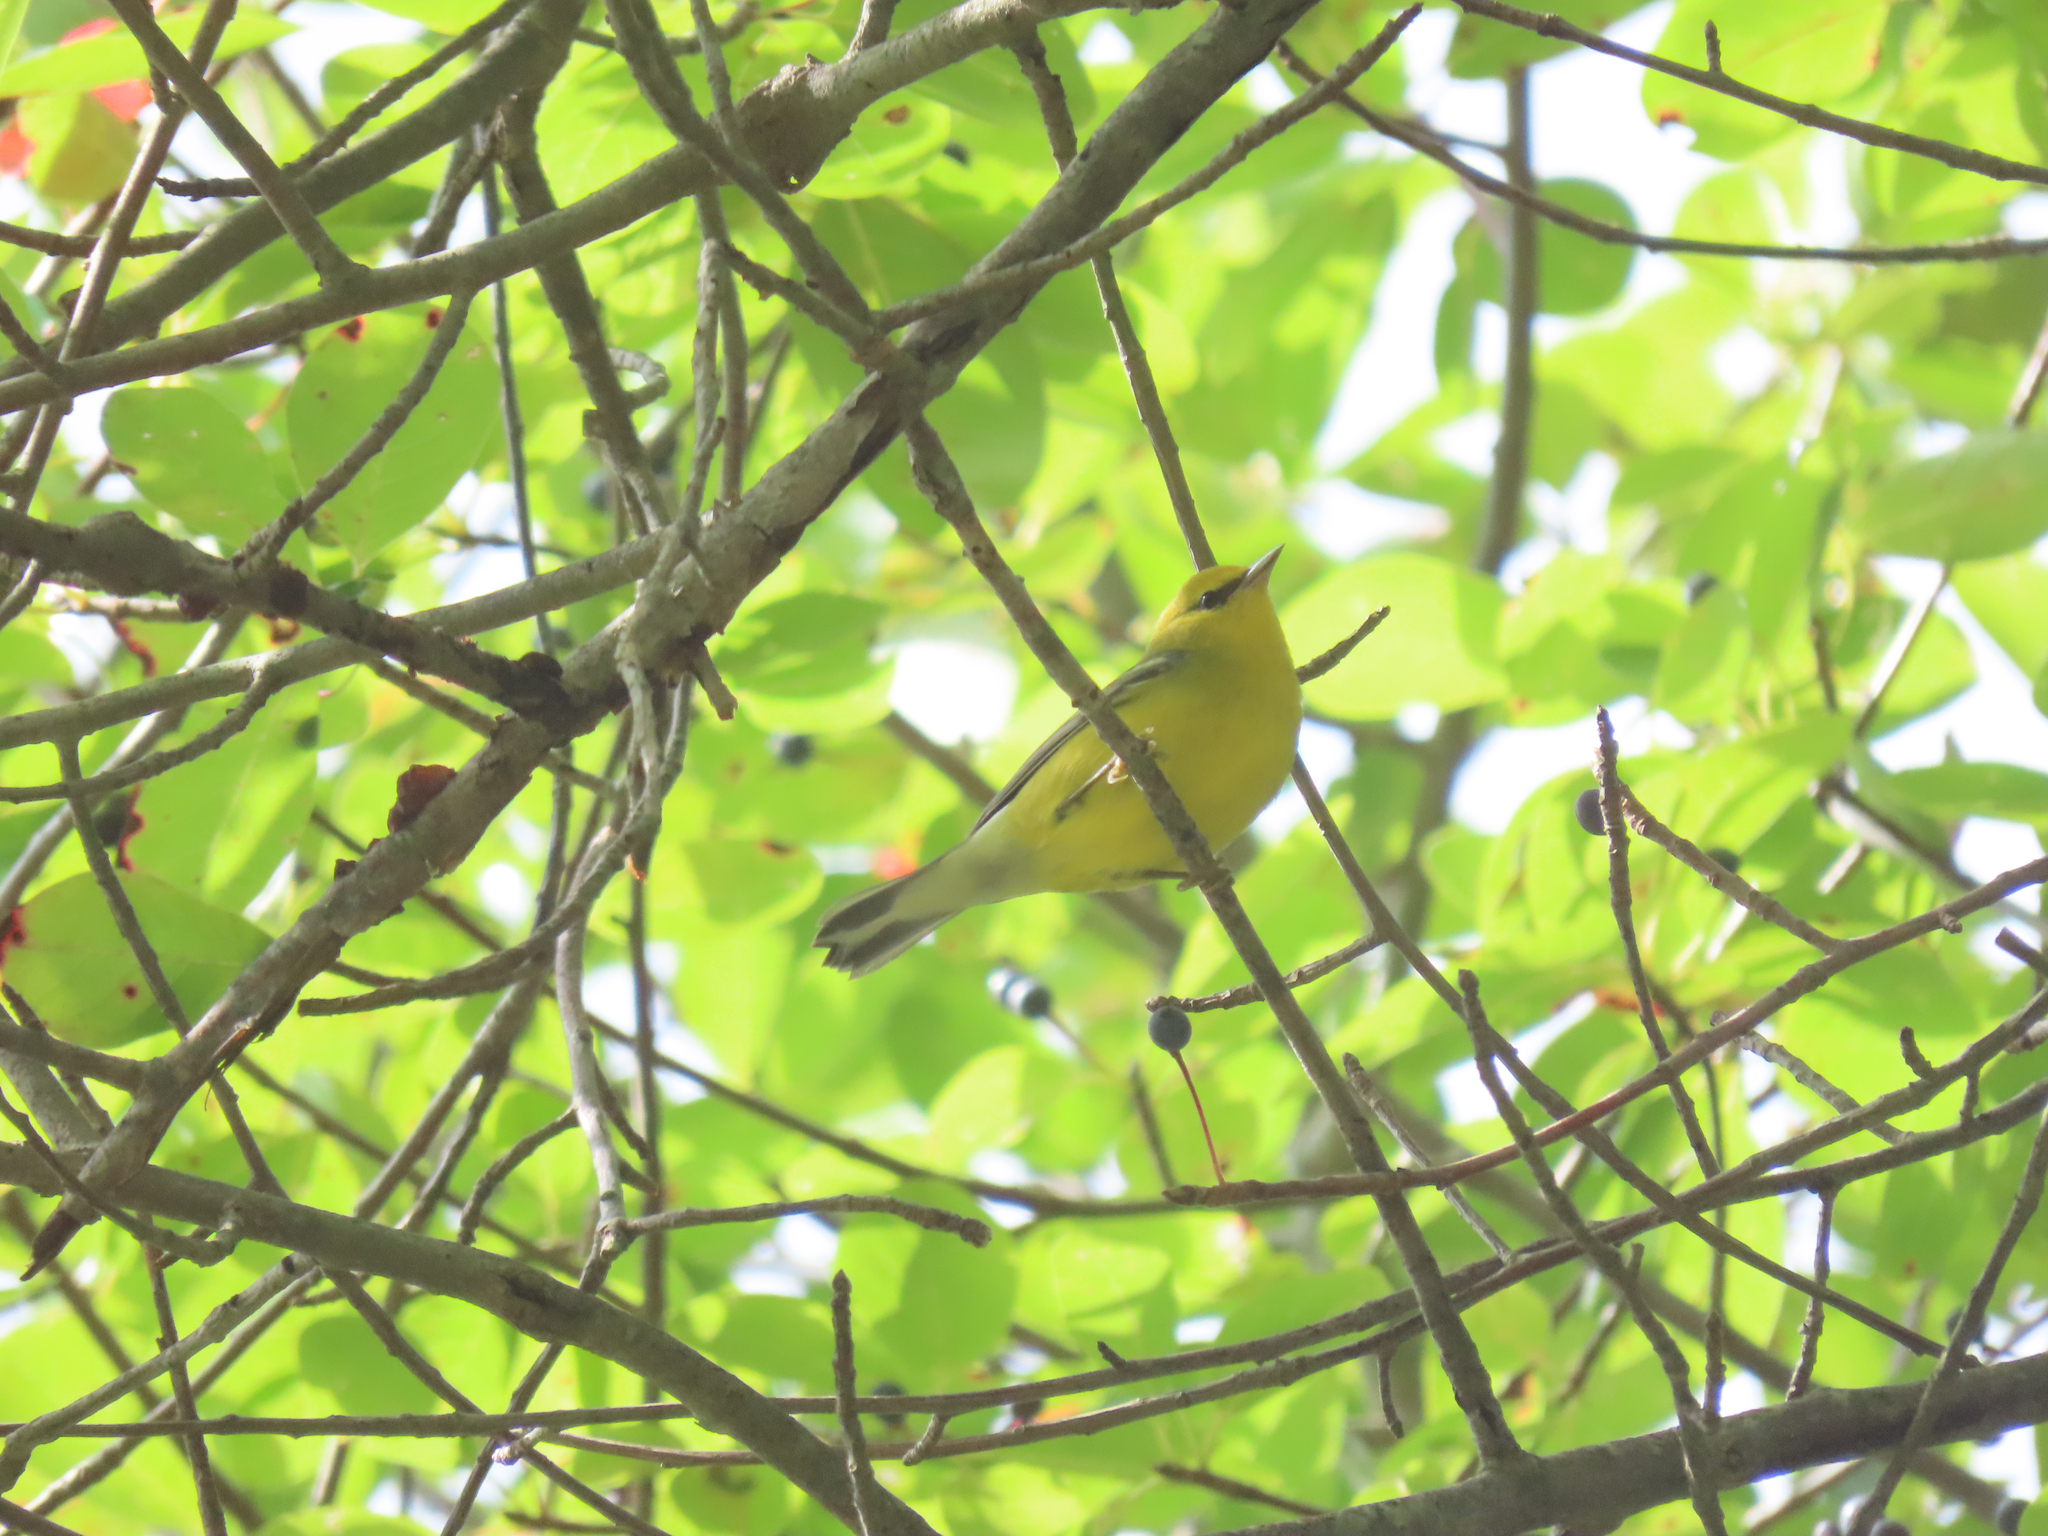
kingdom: Animalia
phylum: Chordata
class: Aves
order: Passeriformes
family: Parulidae
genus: Vermivora
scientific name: Vermivora cyanoptera
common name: Blue-winged warbler
